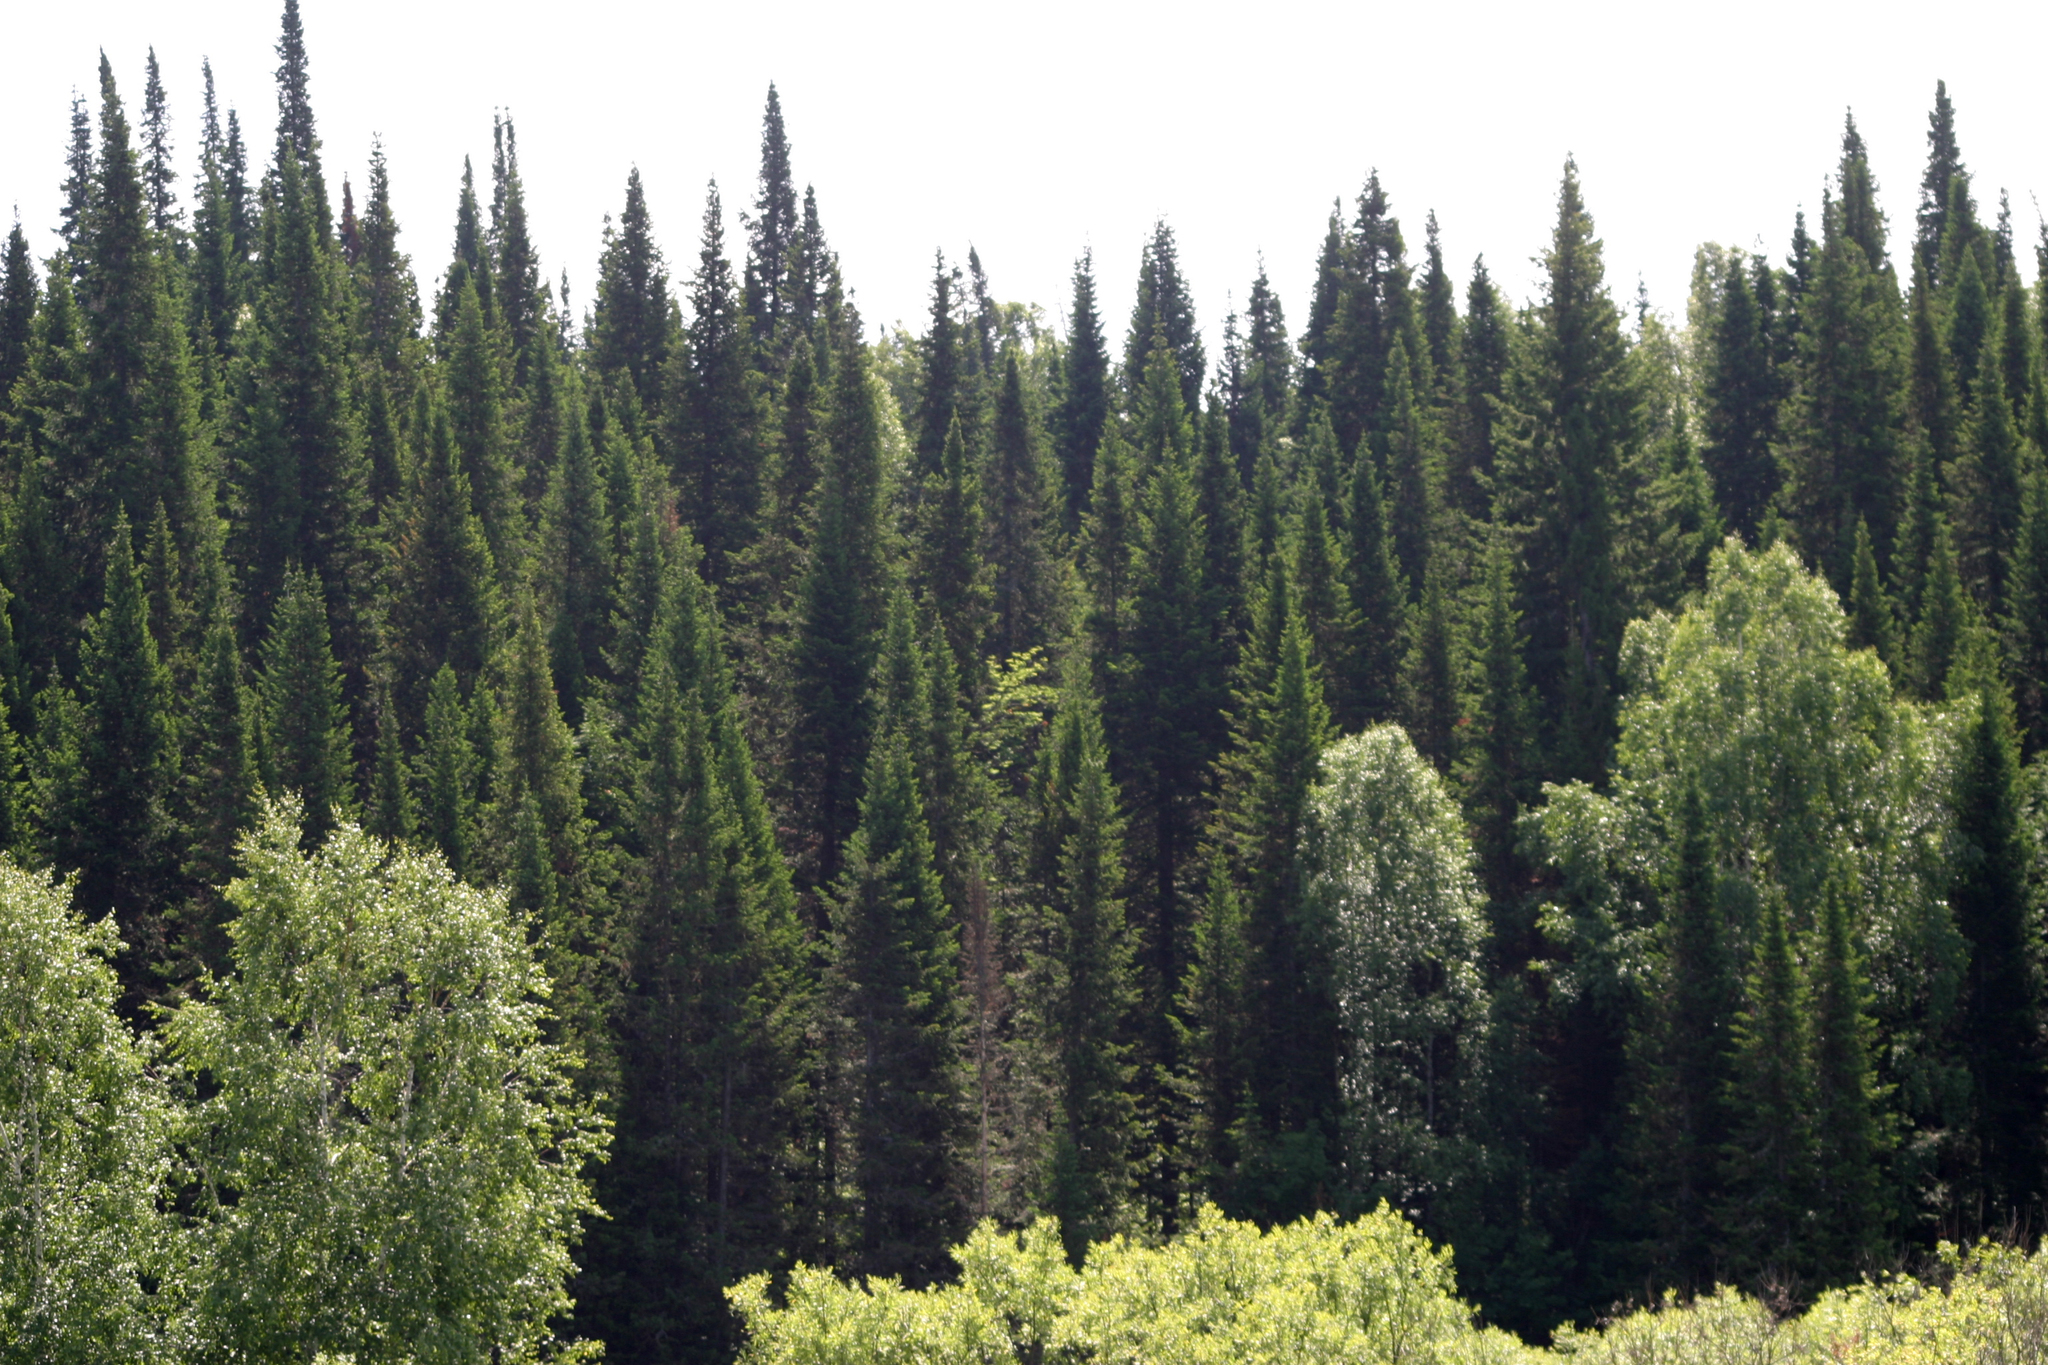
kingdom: Plantae
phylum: Tracheophyta
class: Pinopsida
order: Pinales
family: Pinaceae
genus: Abies
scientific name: Abies sibirica
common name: Siberian fir
